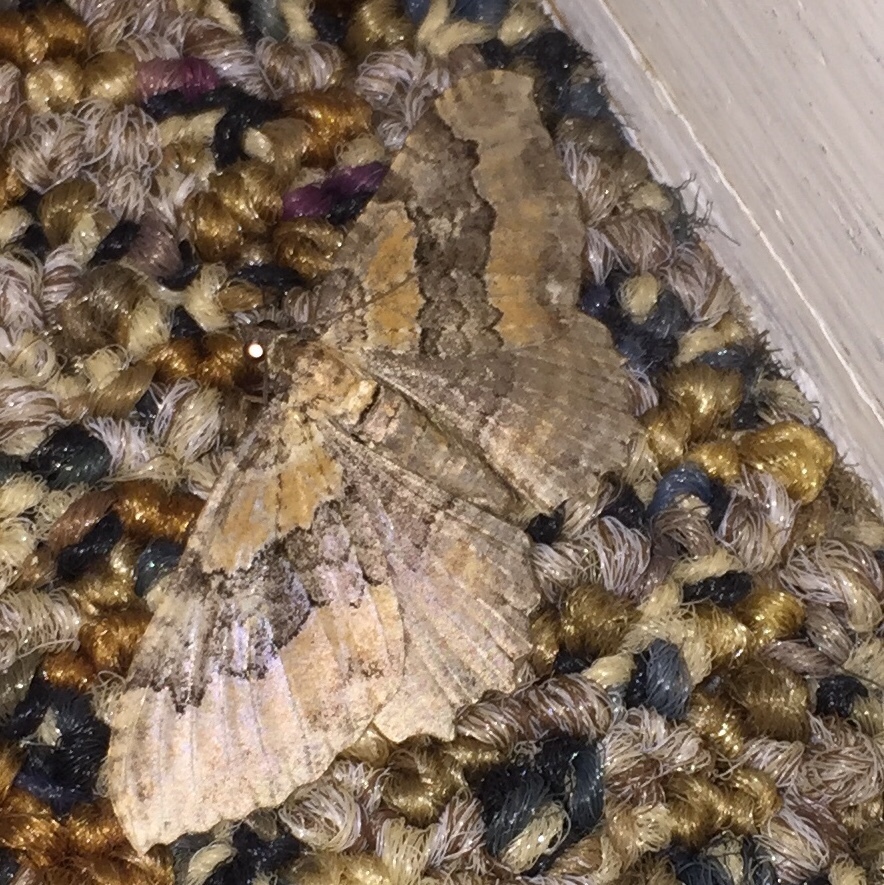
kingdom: Animalia
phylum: Arthropoda
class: Insecta
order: Lepidoptera
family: Geometridae
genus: Rheumaptera
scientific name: Rheumaptera
